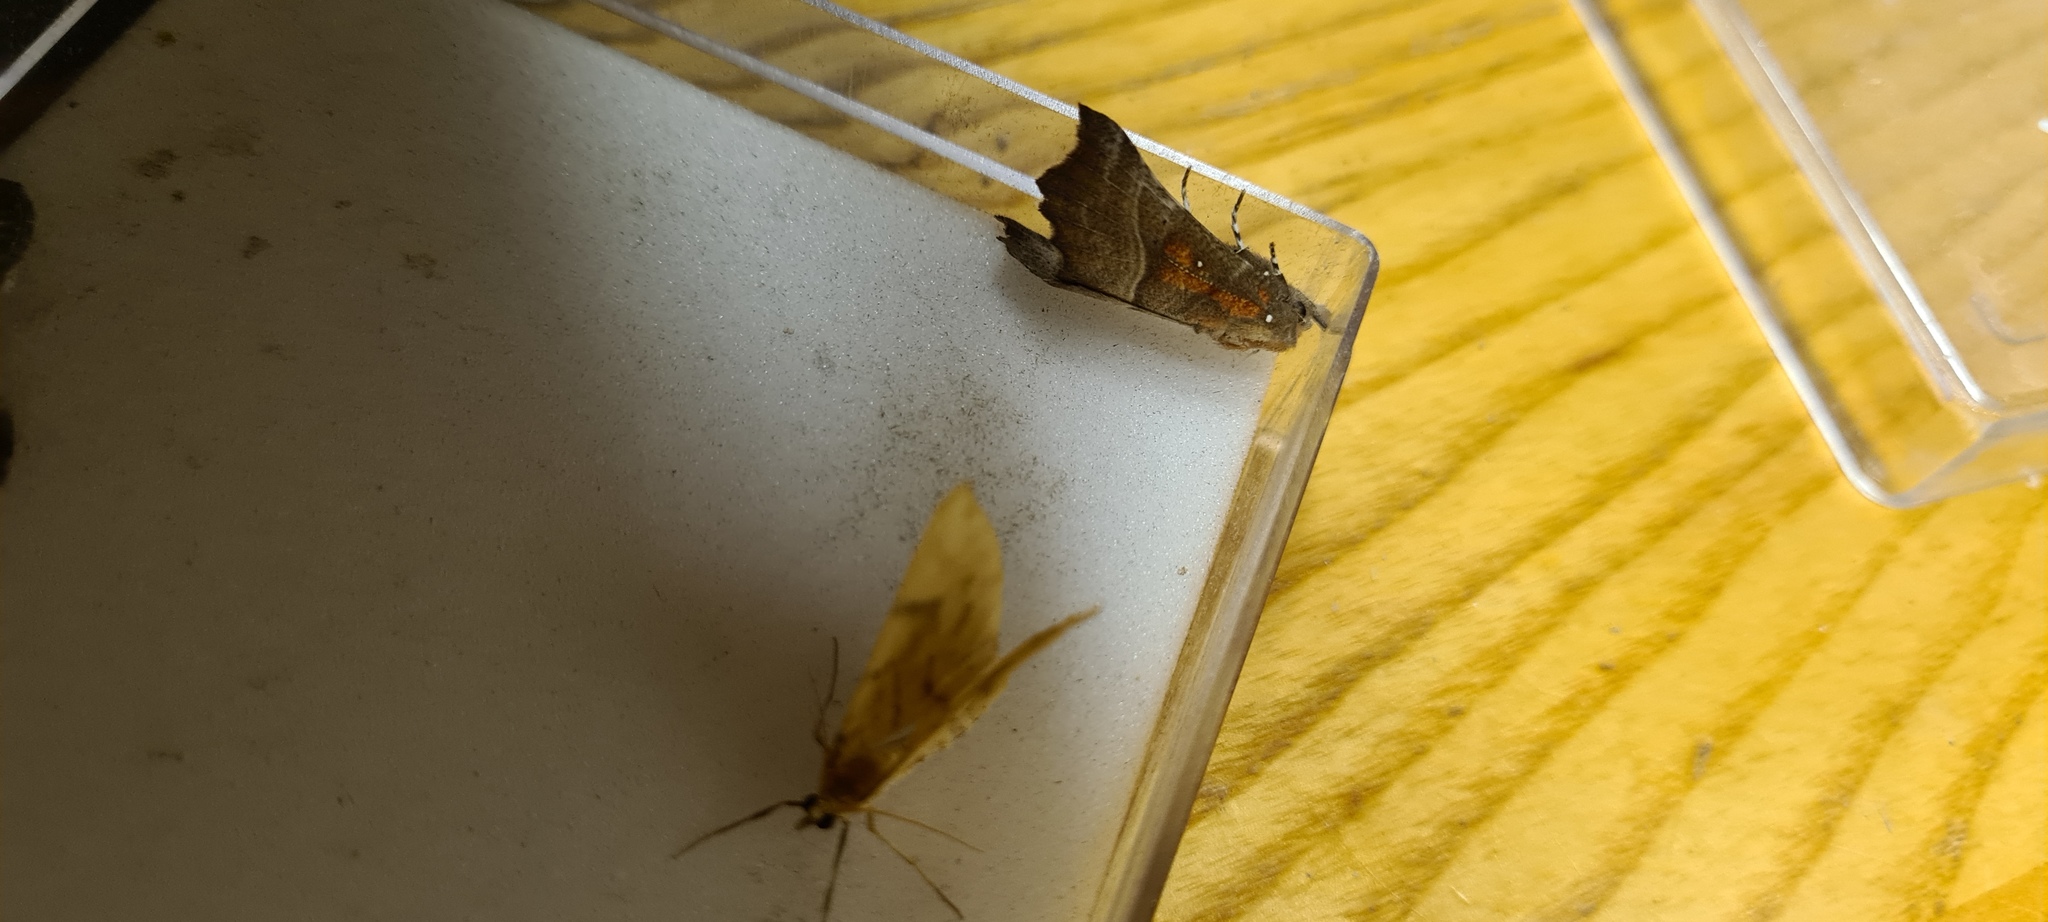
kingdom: Animalia
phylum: Arthropoda
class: Insecta
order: Lepidoptera
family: Erebidae
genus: Scoliopteryx
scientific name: Scoliopteryx libatrix
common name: Herald
